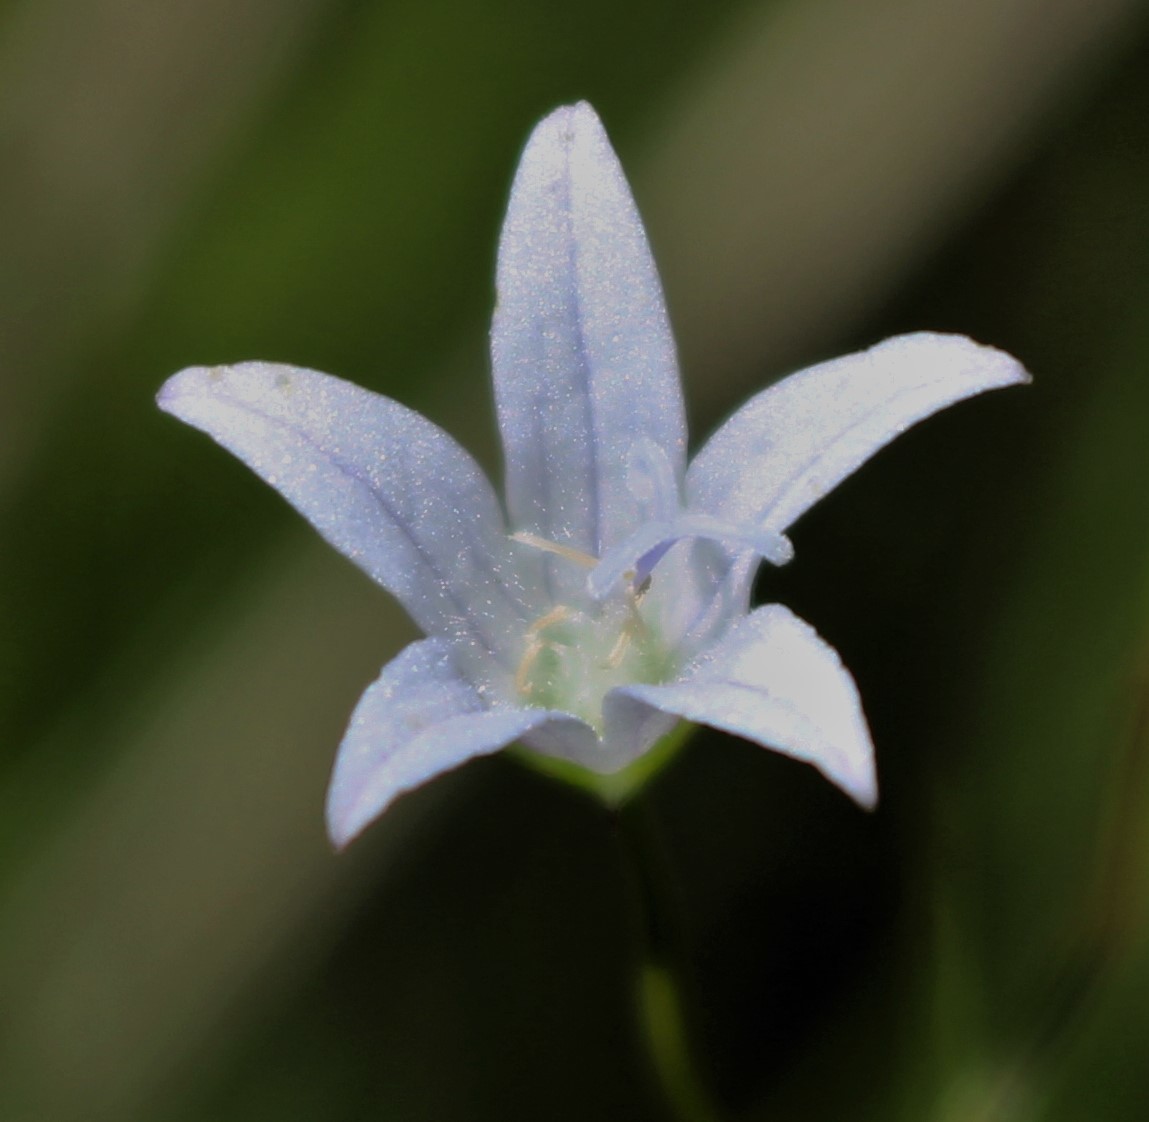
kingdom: Plantae
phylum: Tracheophyta
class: Magnoliopsida
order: Asterales
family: Campanulaceae
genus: Palustricodon
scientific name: Palustricodon aparinoides
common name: Bedstraw bellflower
